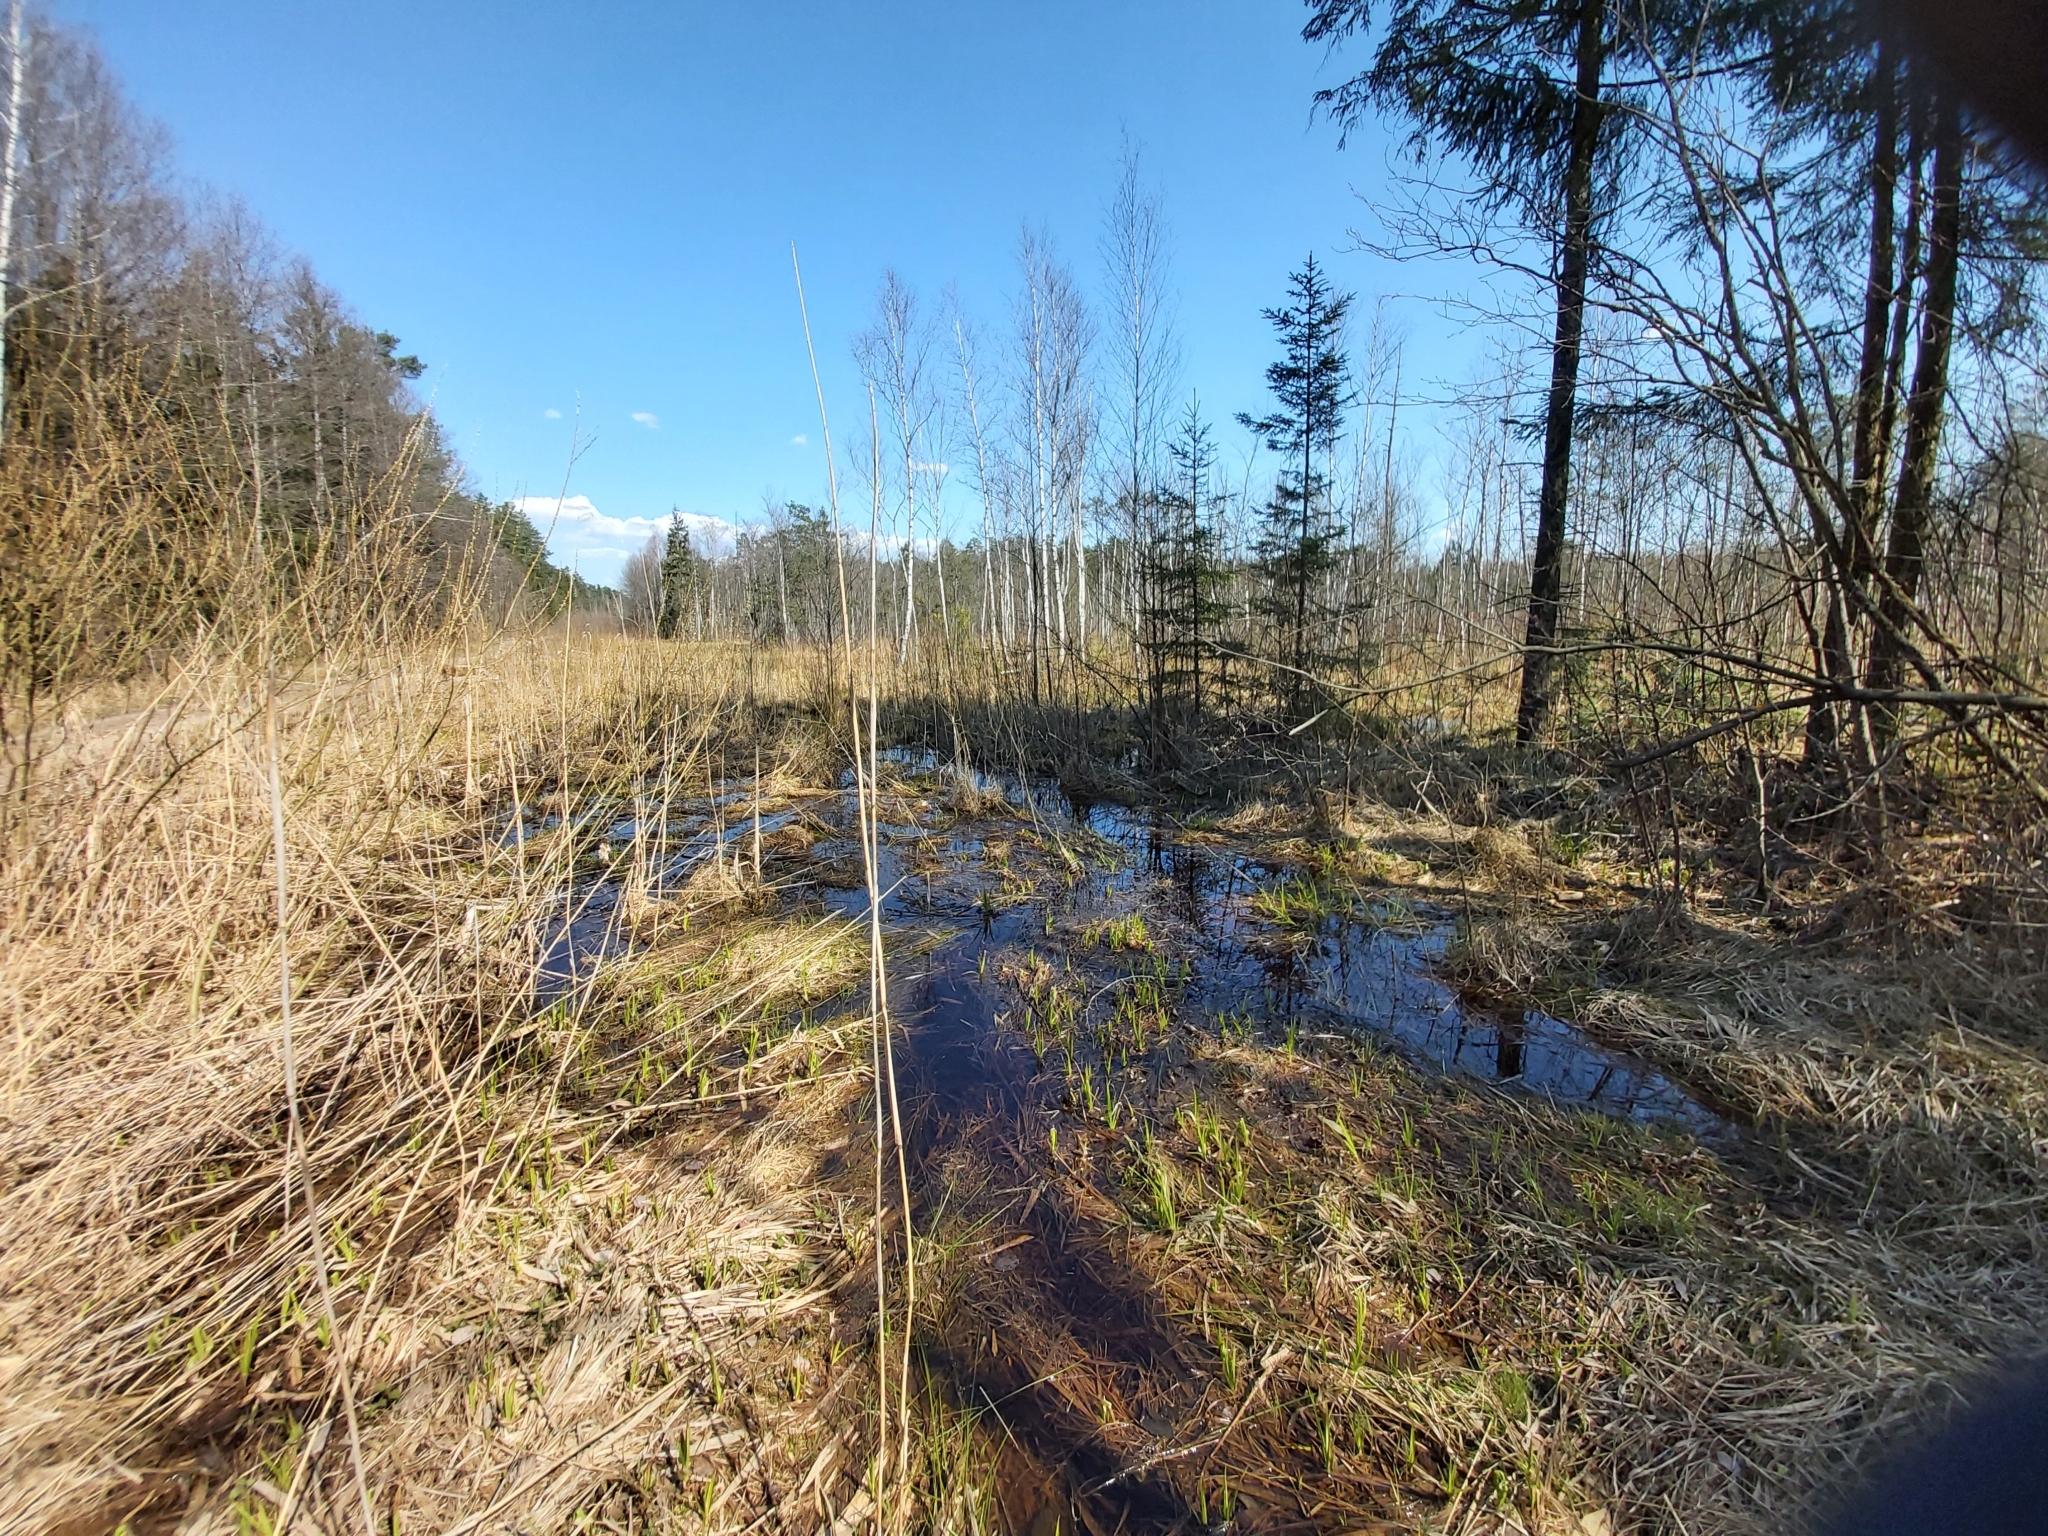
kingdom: Animalia
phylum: Chordata
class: Amphibia
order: Anura
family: Bombinatoridae
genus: Bombina
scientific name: Bombina bombina
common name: Fire-bellied toad
